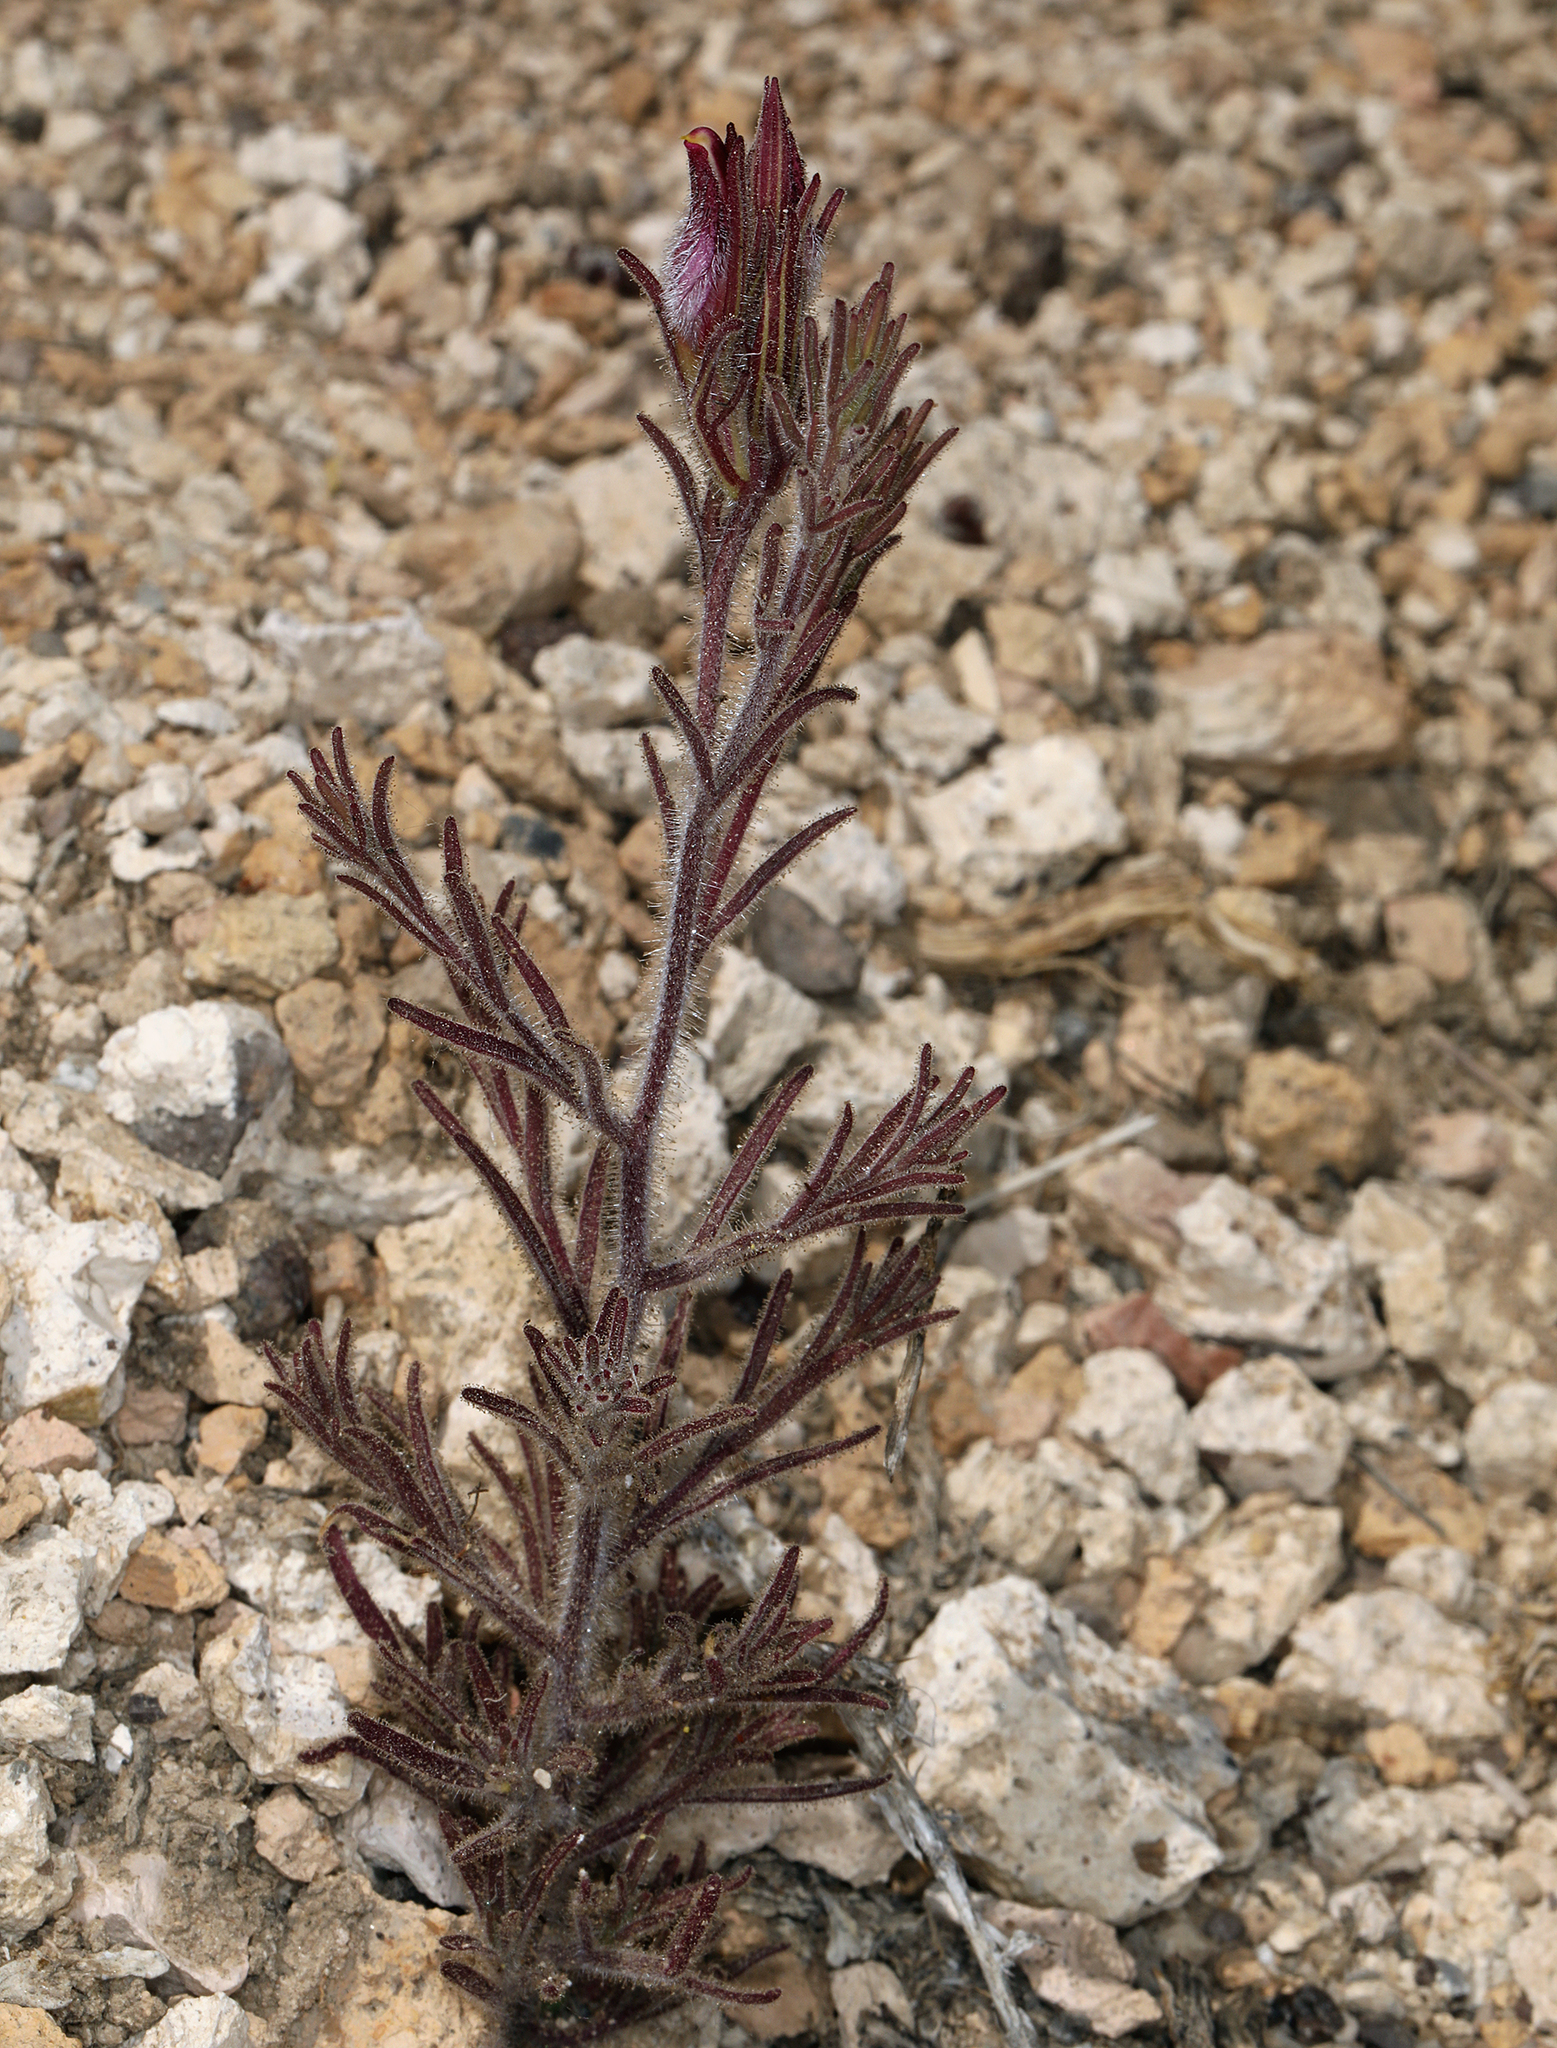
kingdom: Plantae
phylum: Tracheophyta
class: Magnoliopsida
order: Lamiales
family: Orobanchaceae
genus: Cordylanthus
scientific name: Cordylanthus kingii
